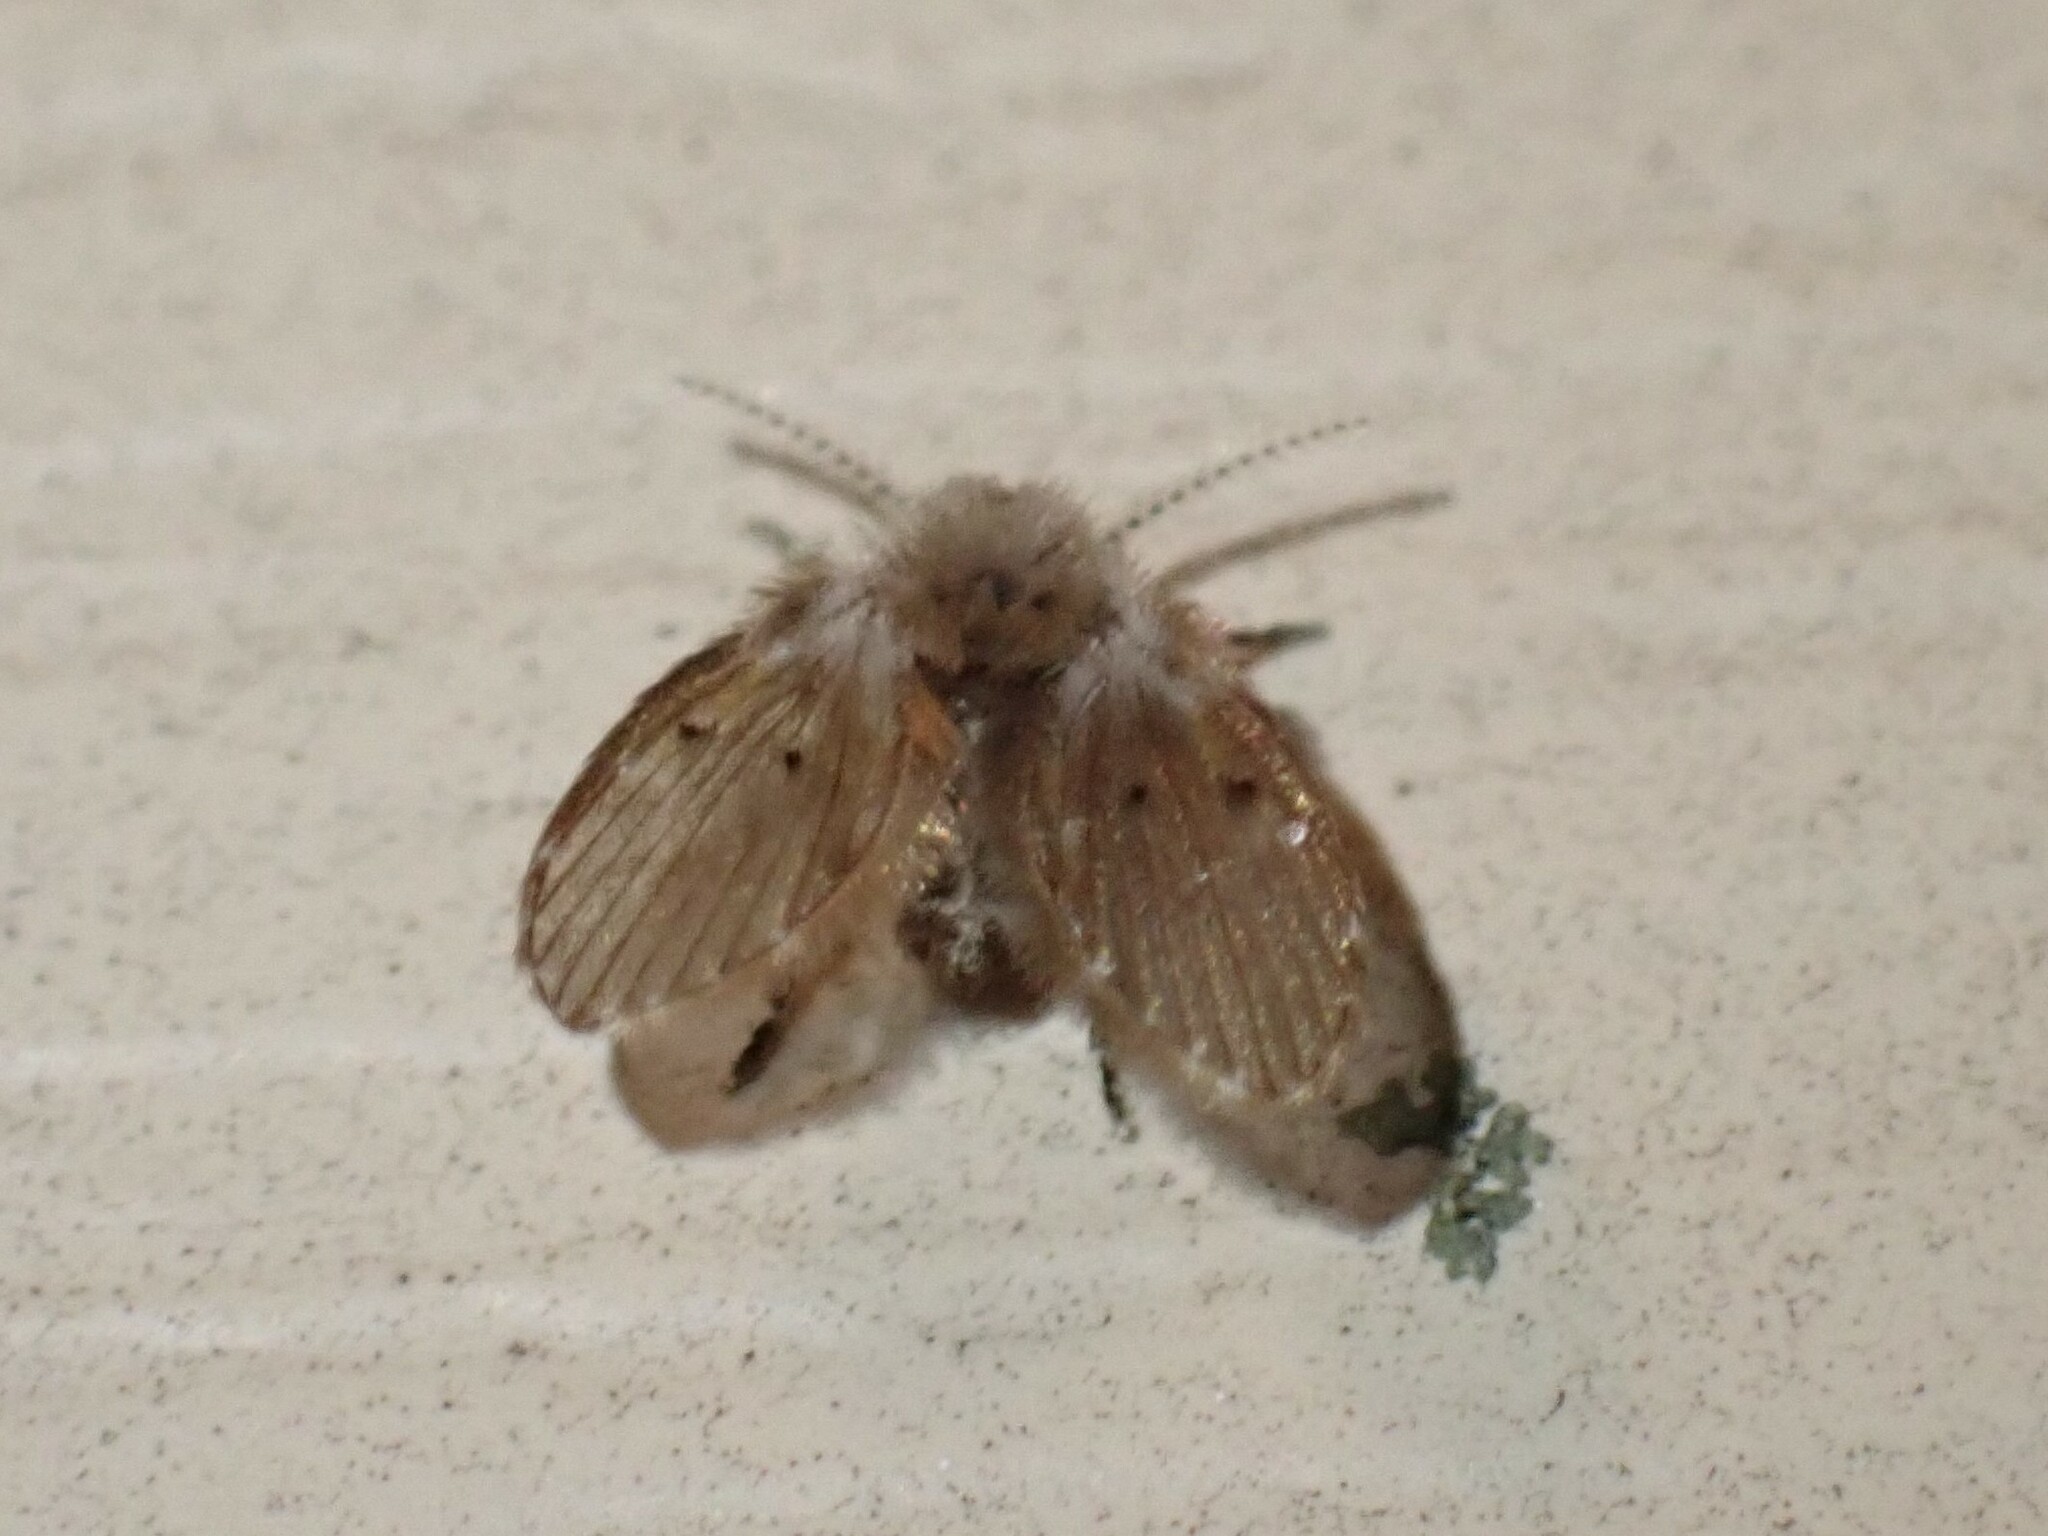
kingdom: Animalia
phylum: Arthropoda
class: Insecta
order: Diptera
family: Psychodidae
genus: Clogmia
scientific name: Clogmia albipunctatus
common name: White-spotted moth fly
